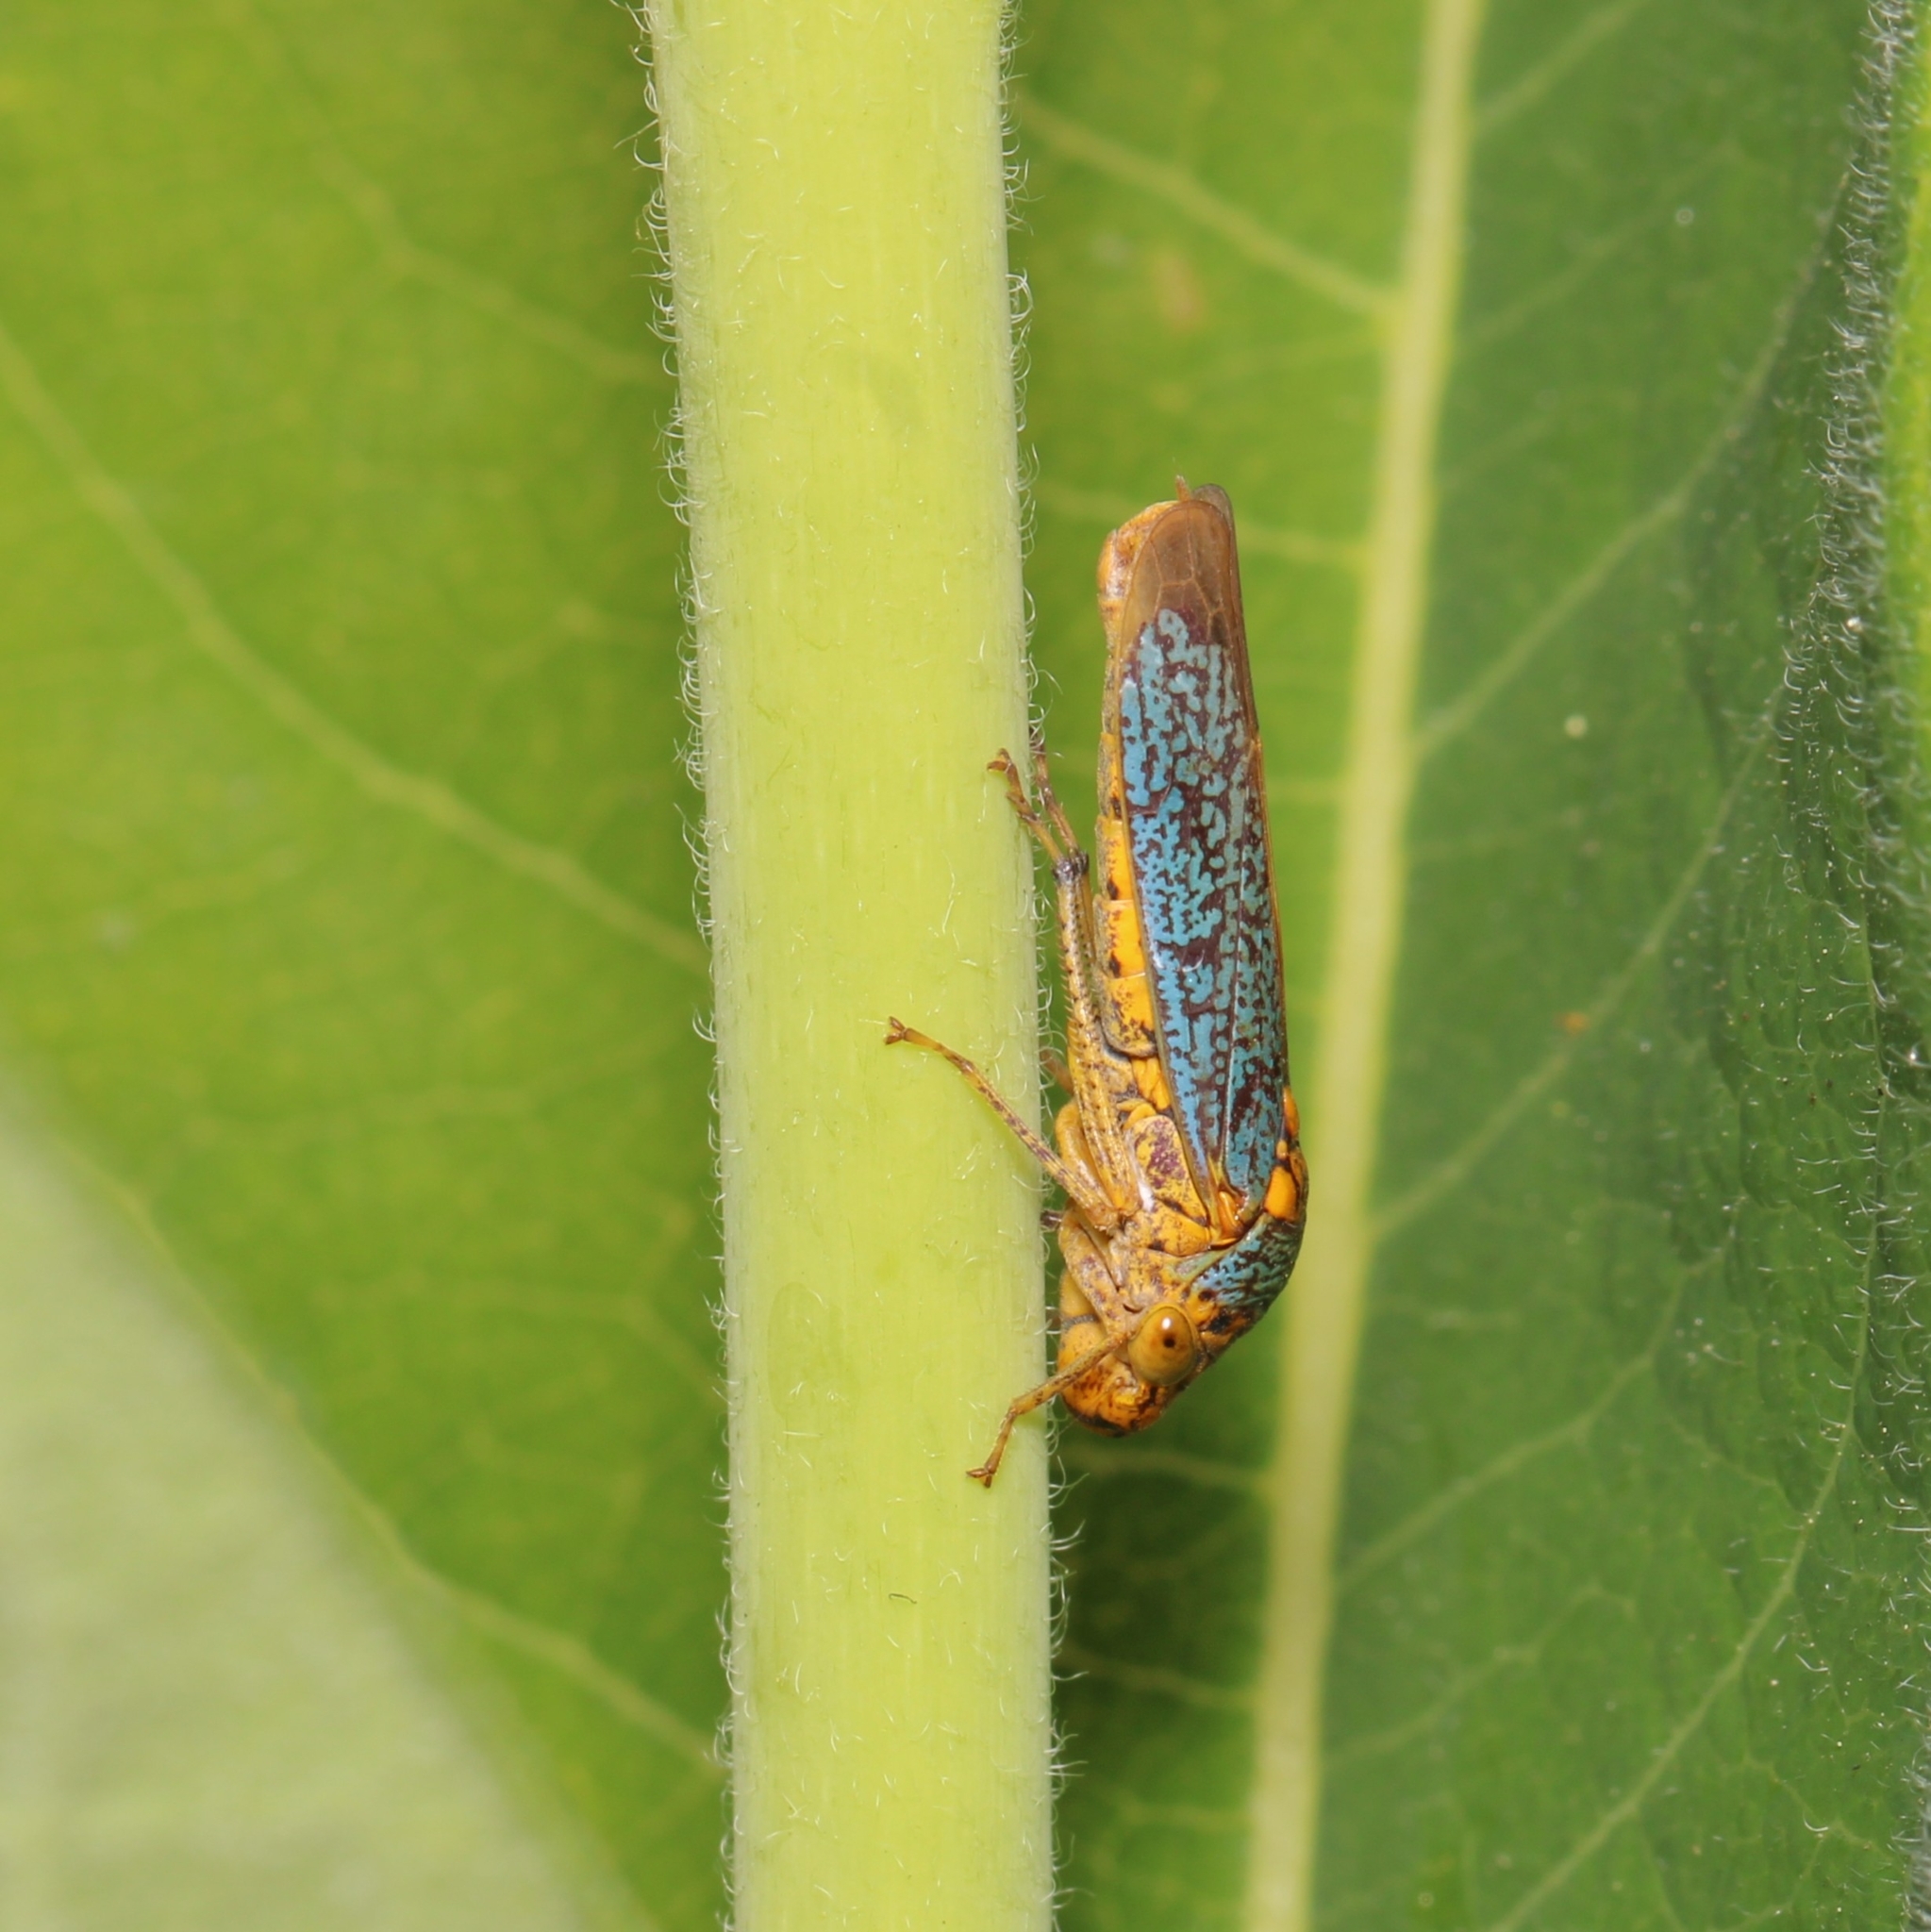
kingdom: Animalia
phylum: Arthropoda
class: Insecta
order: Hemiptera
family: Cicadellidae
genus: Oncometopia
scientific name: Oncometopia orbona
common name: Broad-headed sharpshooter
